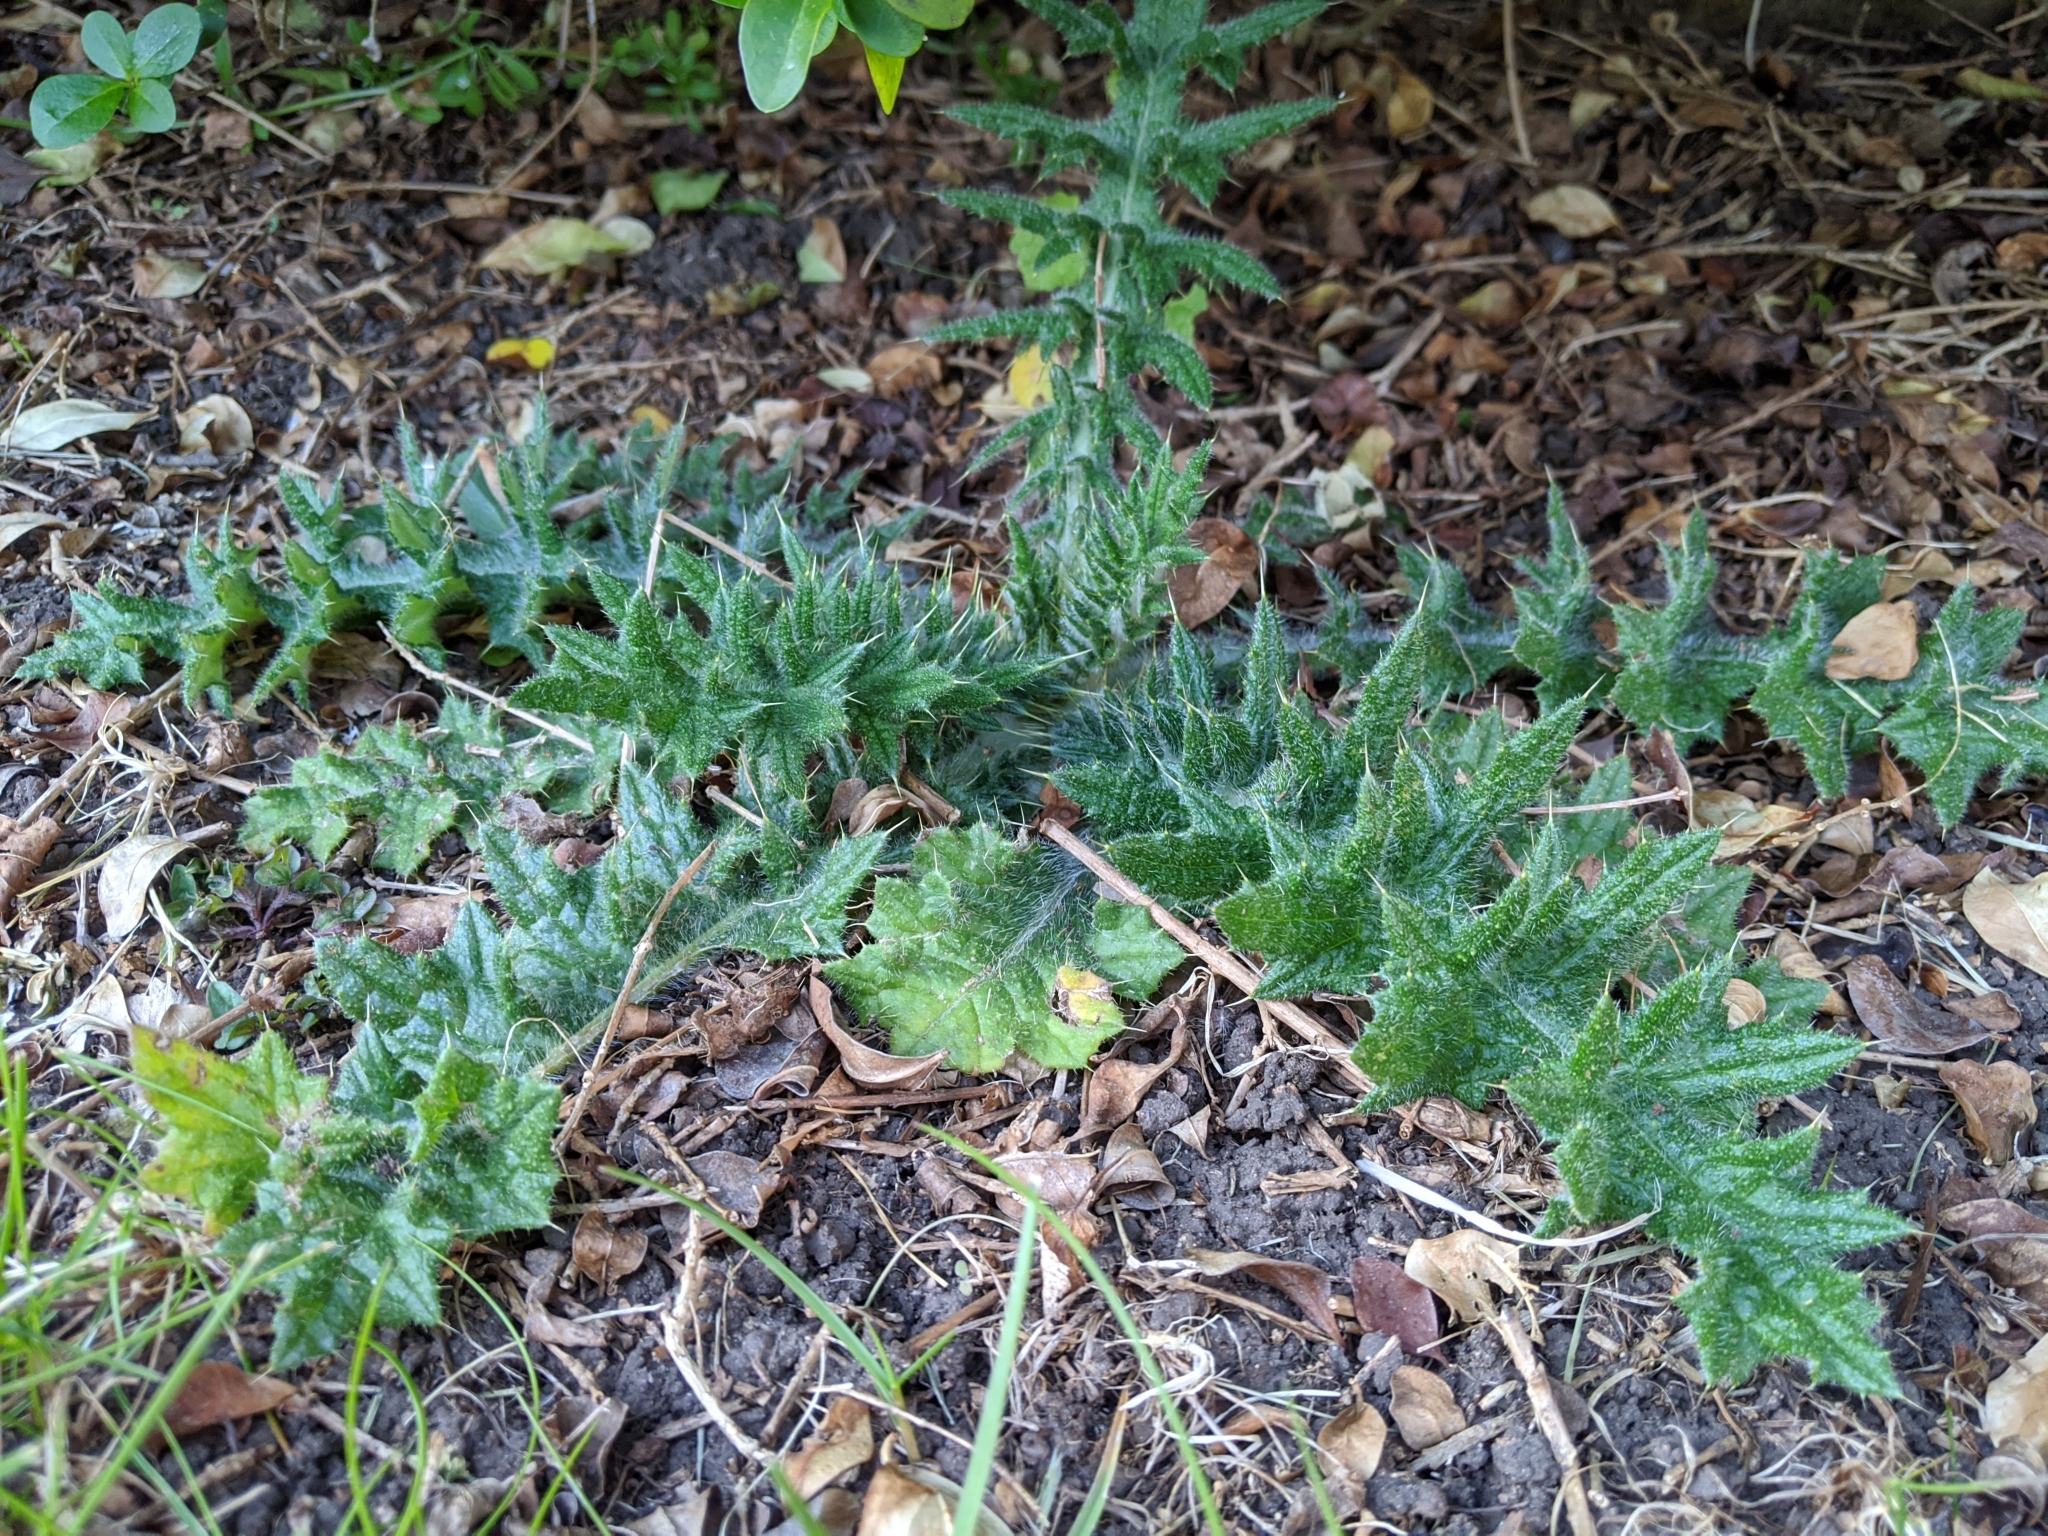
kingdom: Plantae
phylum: Tracheophyta
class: Magnoliopsida
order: Asterales
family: Asteraceae
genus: Cirsium
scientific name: Cirsium vulgare
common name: Bull thistle
